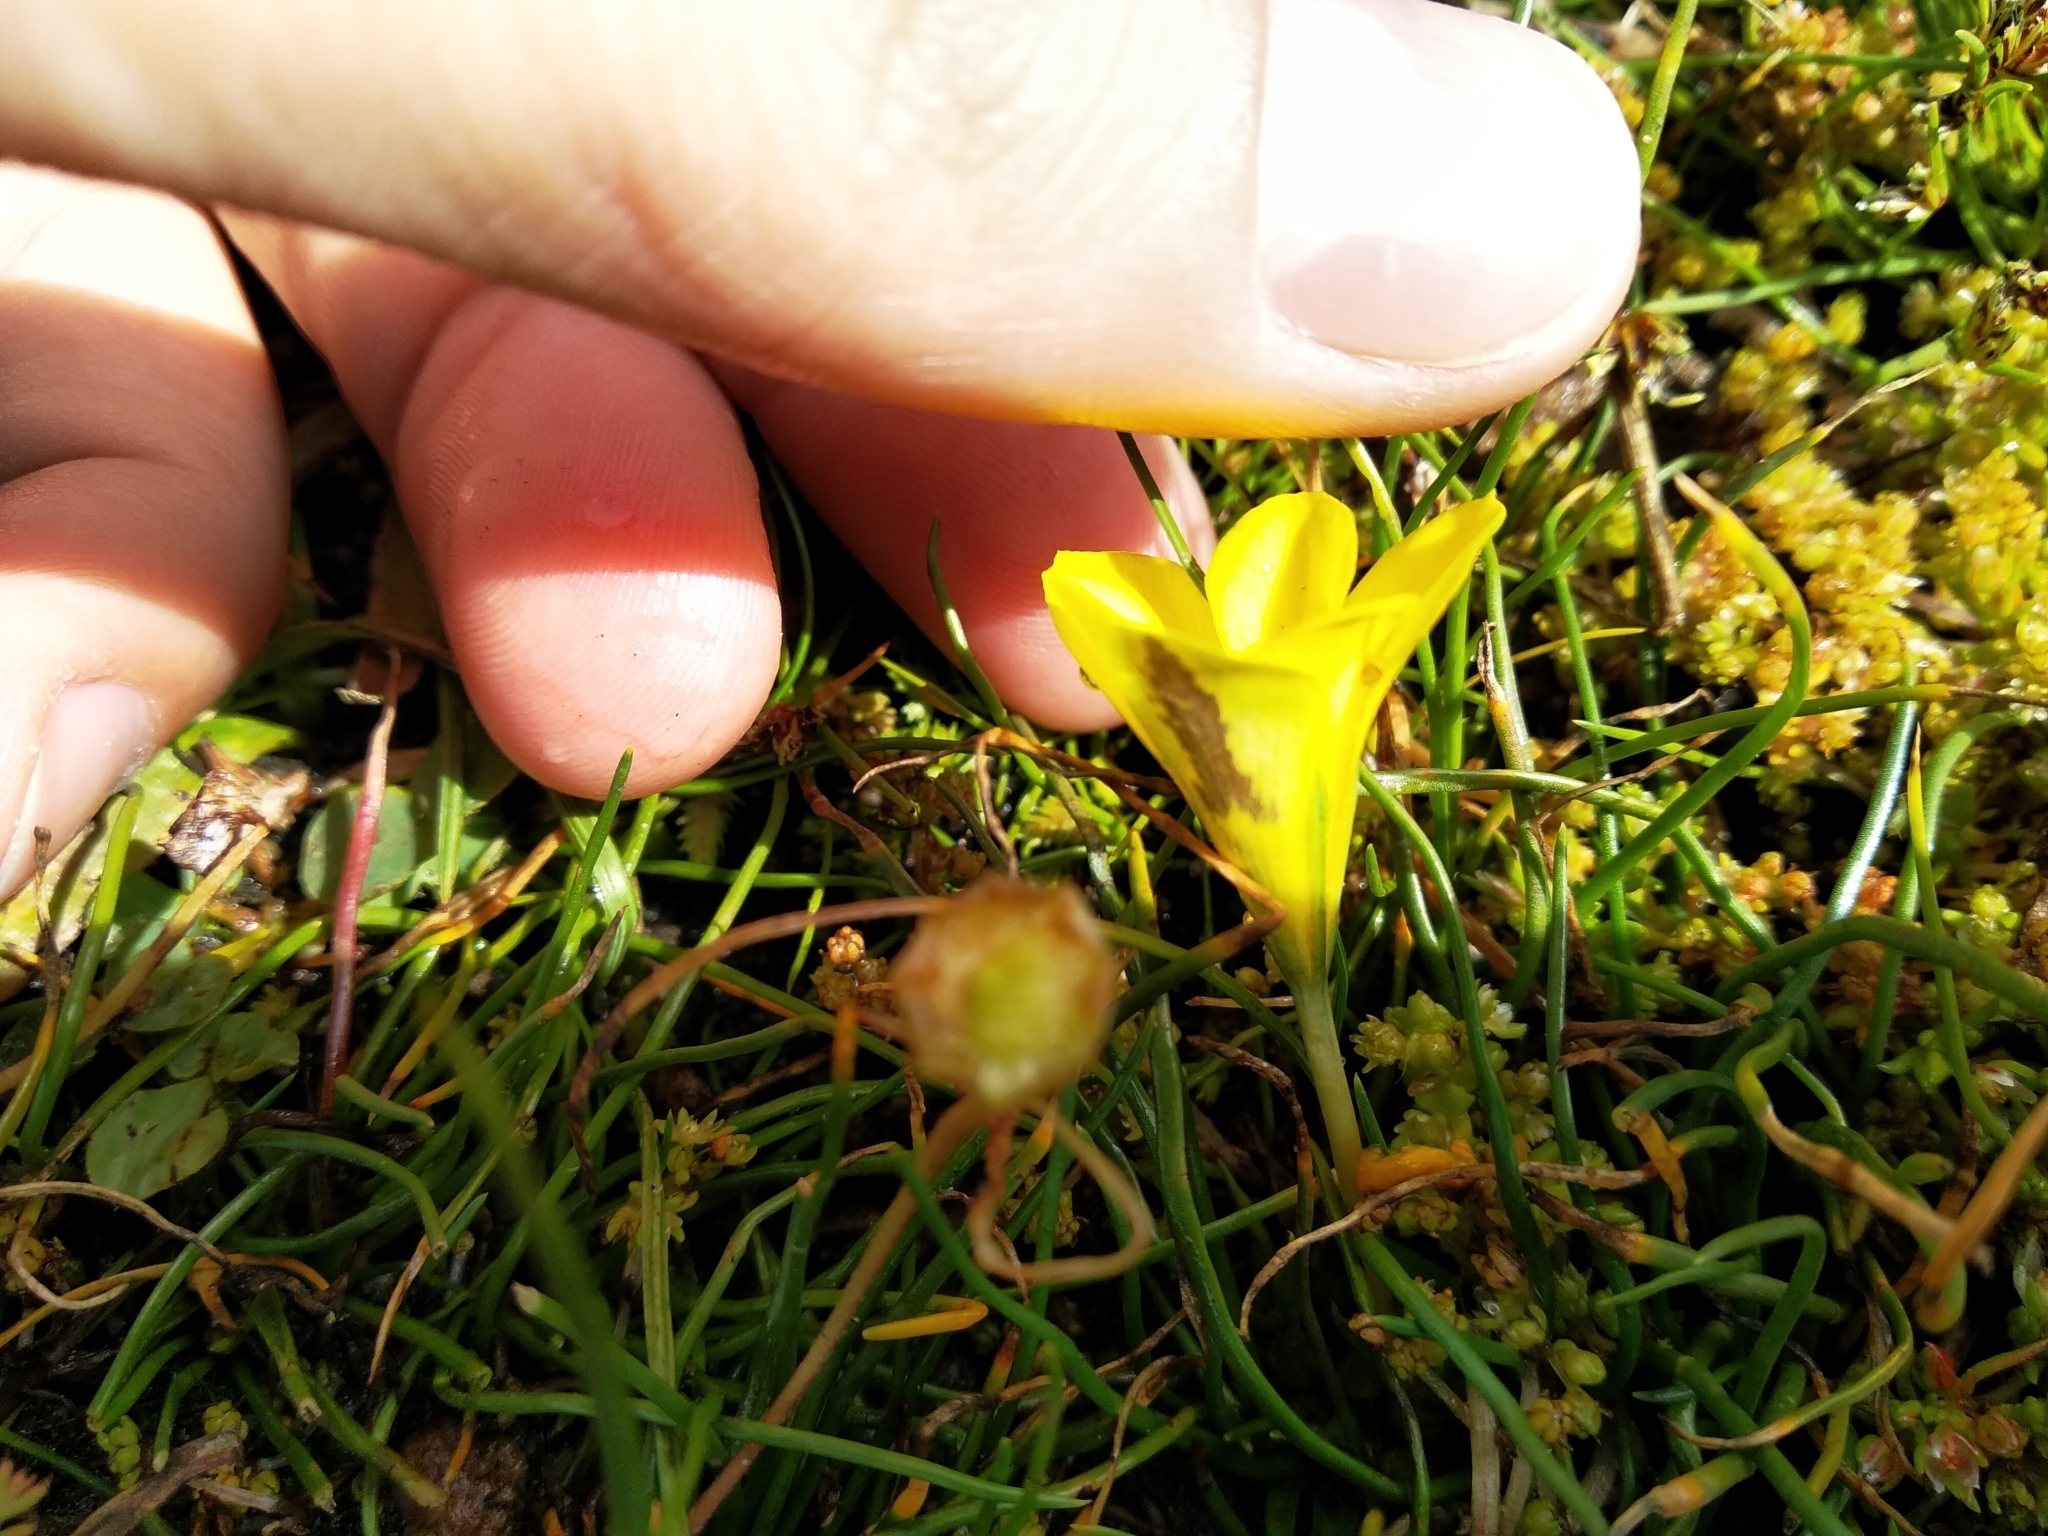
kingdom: Plantae
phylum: Tracheophyta
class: Liliopsida
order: Asparagales
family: Iridaceae
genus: Moraea
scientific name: Moraea fugacissima
